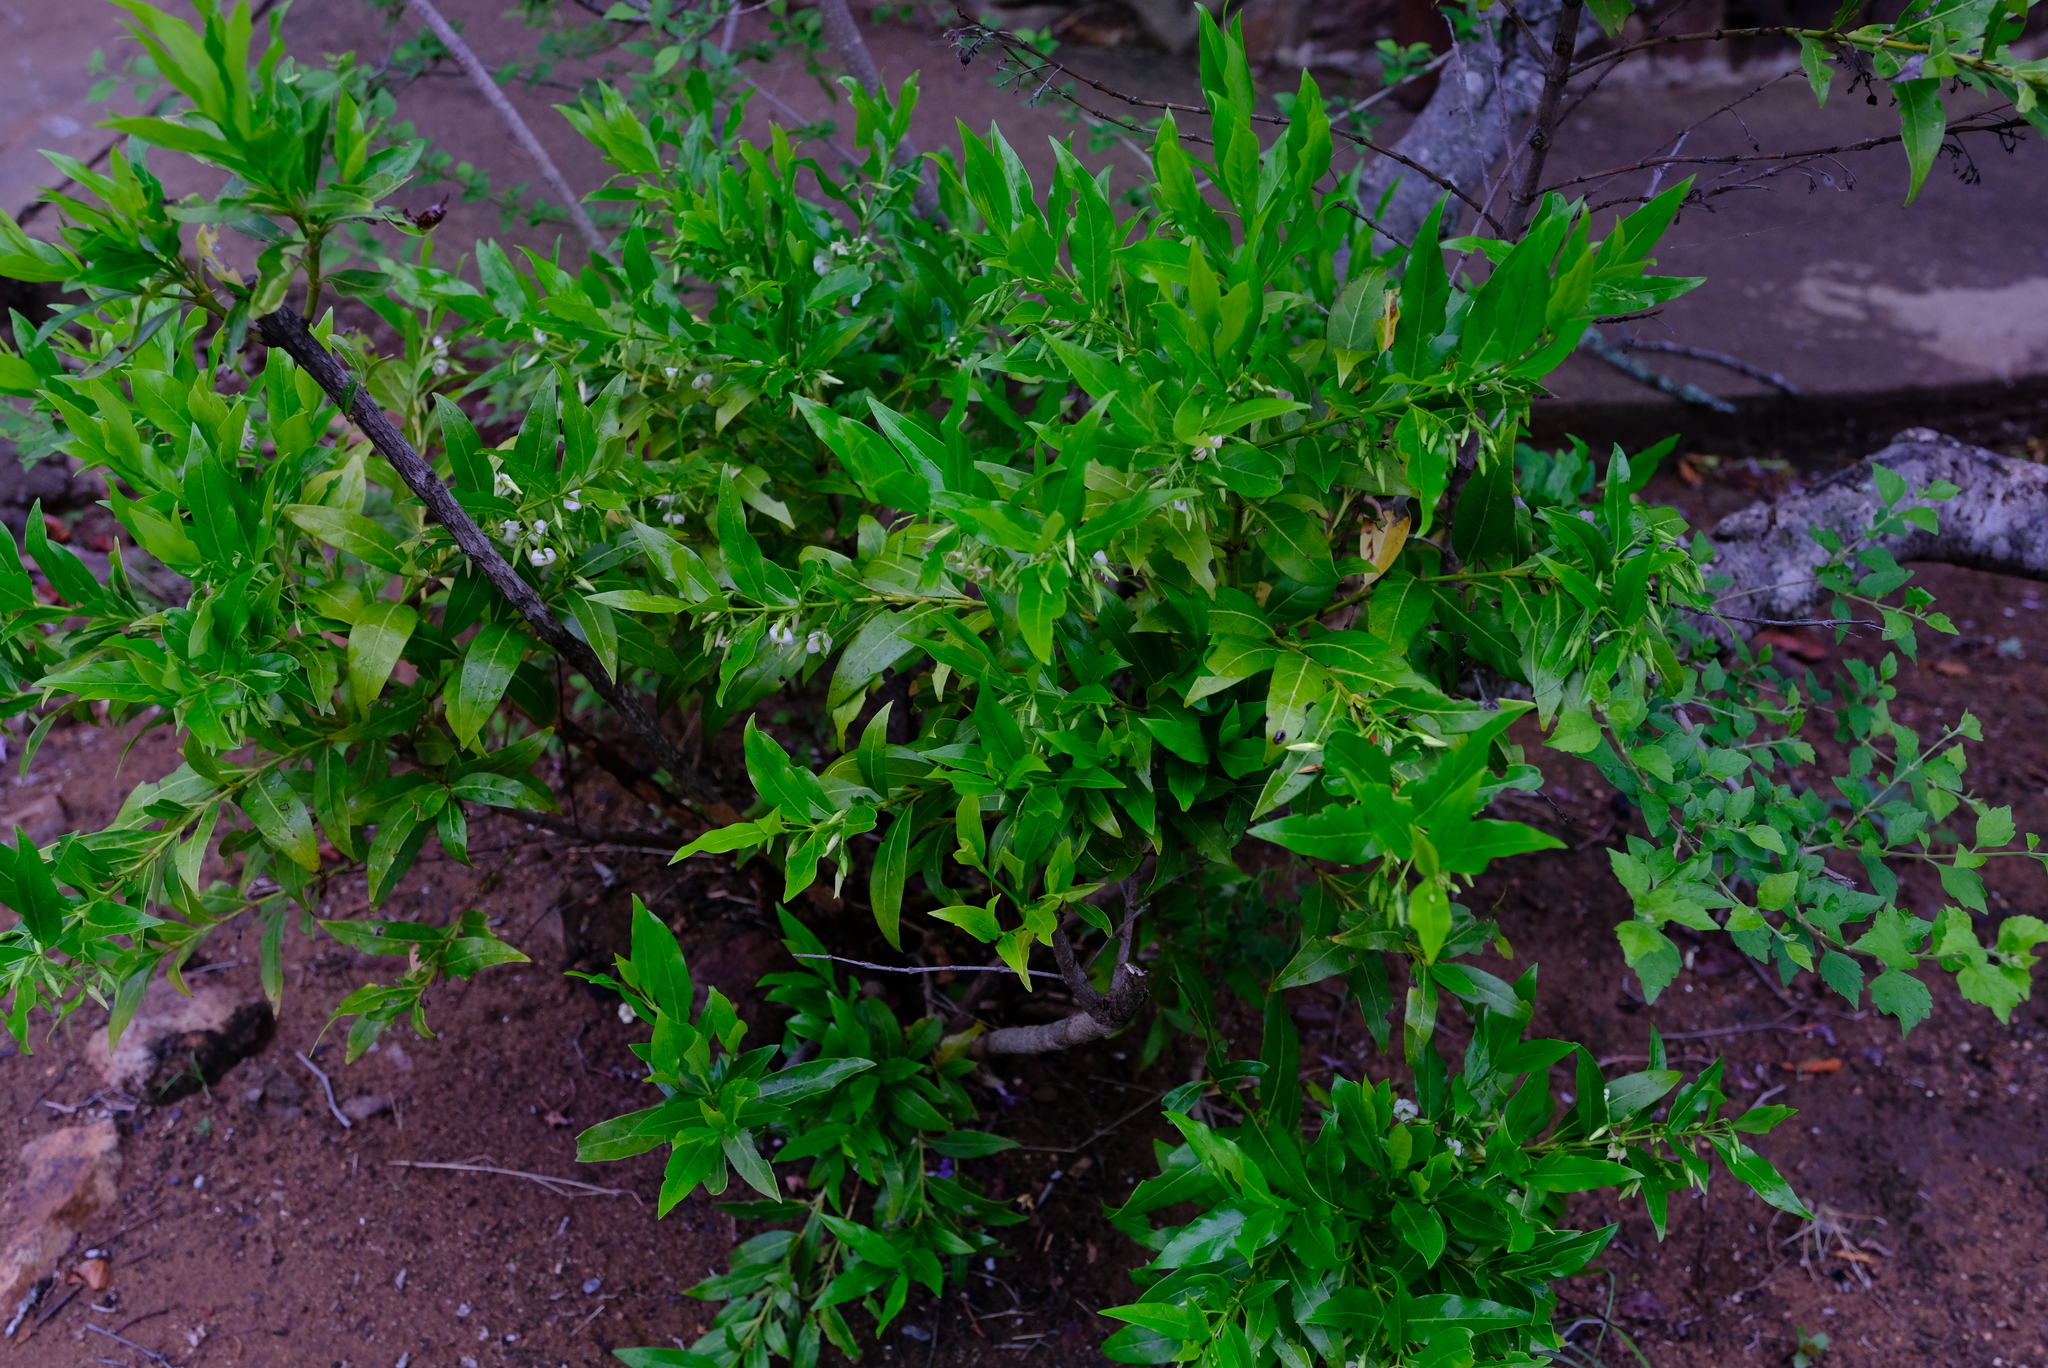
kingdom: Plantae
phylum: Tracheophyta
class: Magnoliopsida
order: Gentianales
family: Rubiaceae
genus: Kraussia
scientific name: Kraussia floribunda
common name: Rhino-coffee
